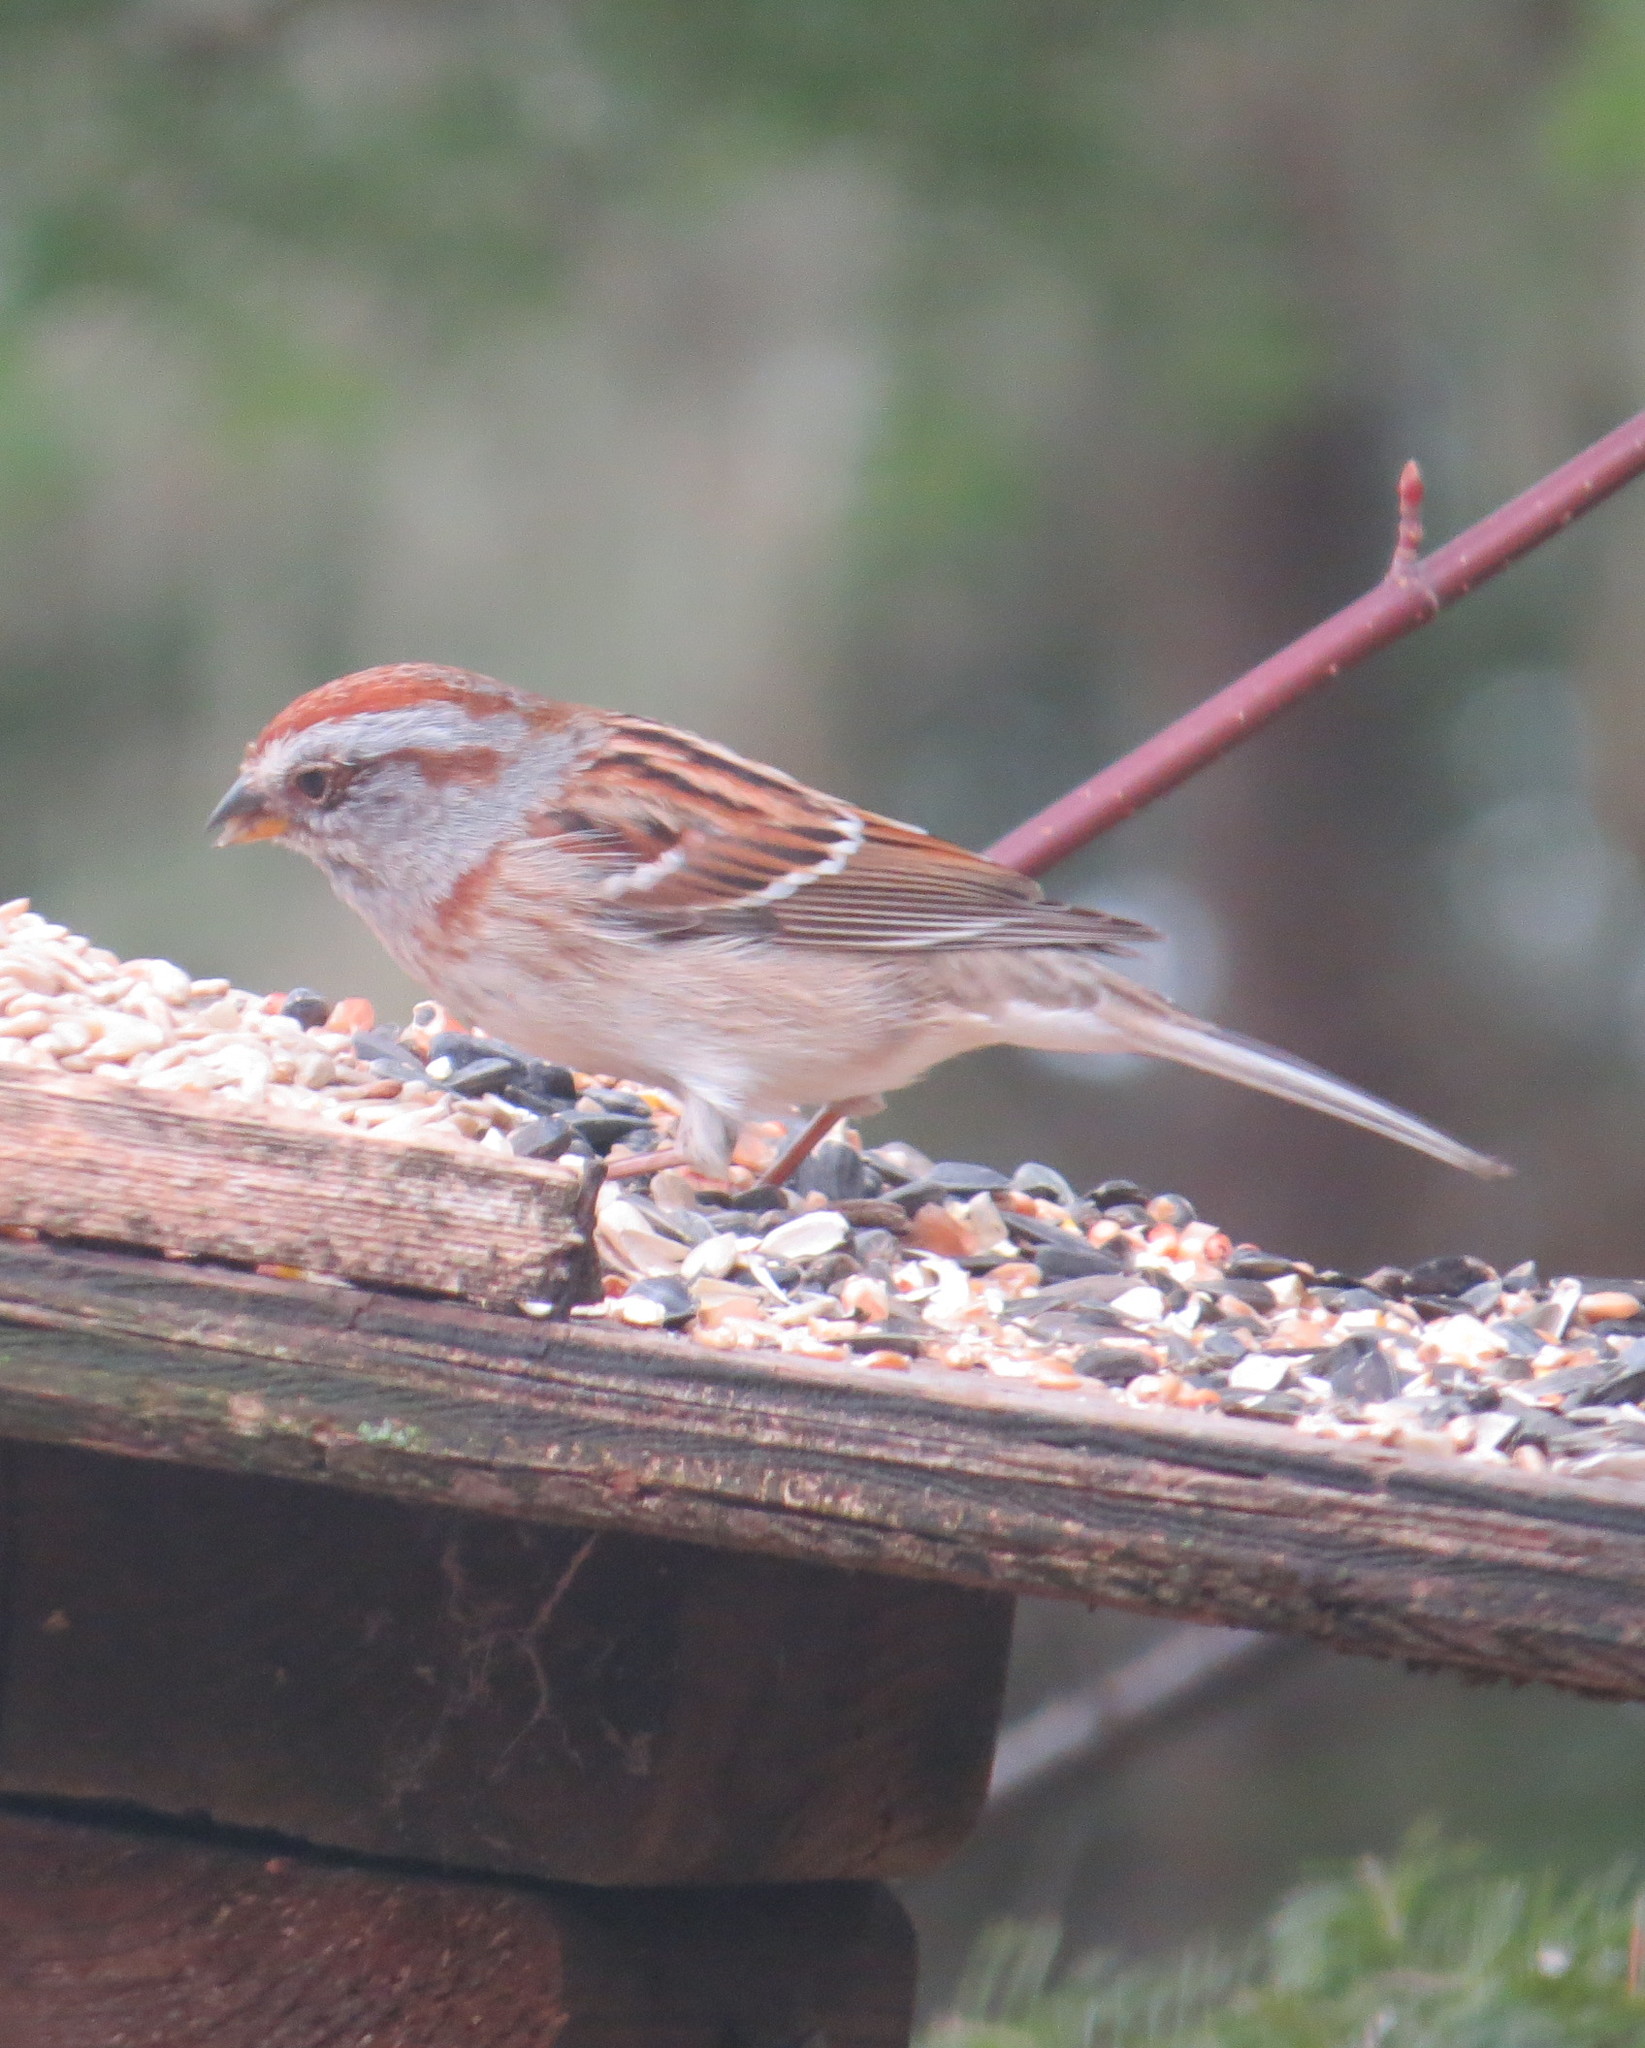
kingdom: Animalia
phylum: Chordata
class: Aves
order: Passeriformes
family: Passerellidae
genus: Spizelloides
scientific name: Spizelloides arborea
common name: American tree sparrow
